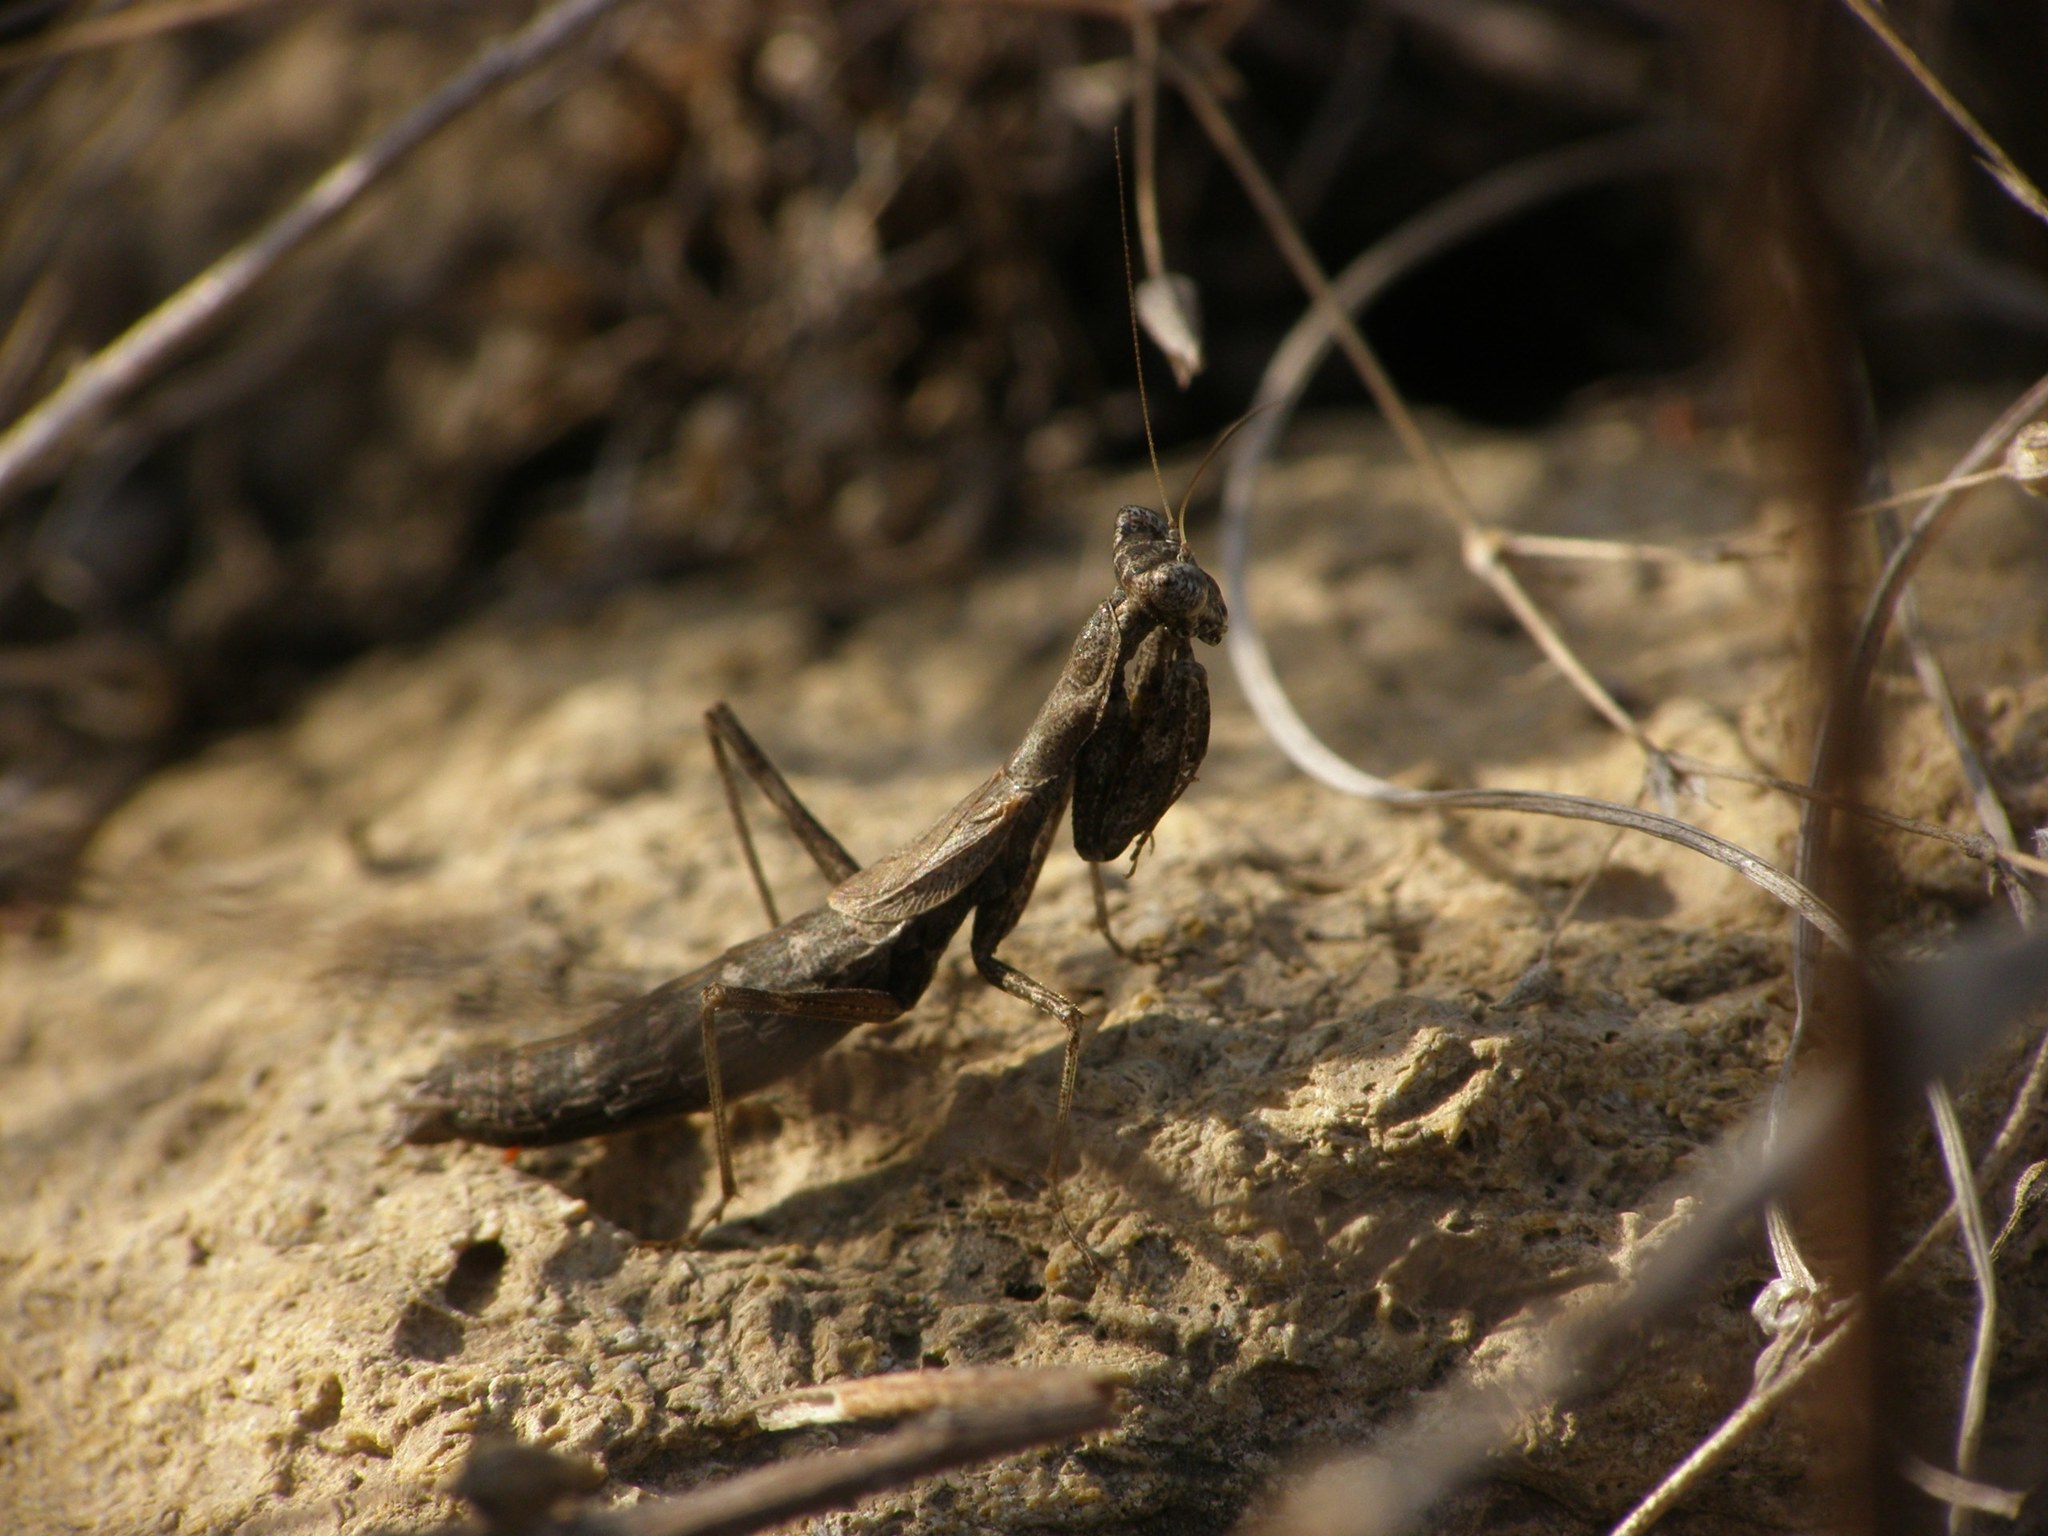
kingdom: Animalia
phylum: Arthropoda
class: Insecta
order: Mantodea
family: Amelidae
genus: Ameles
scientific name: Ameles heldreichi
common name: Heldreich's dwarf mantis
